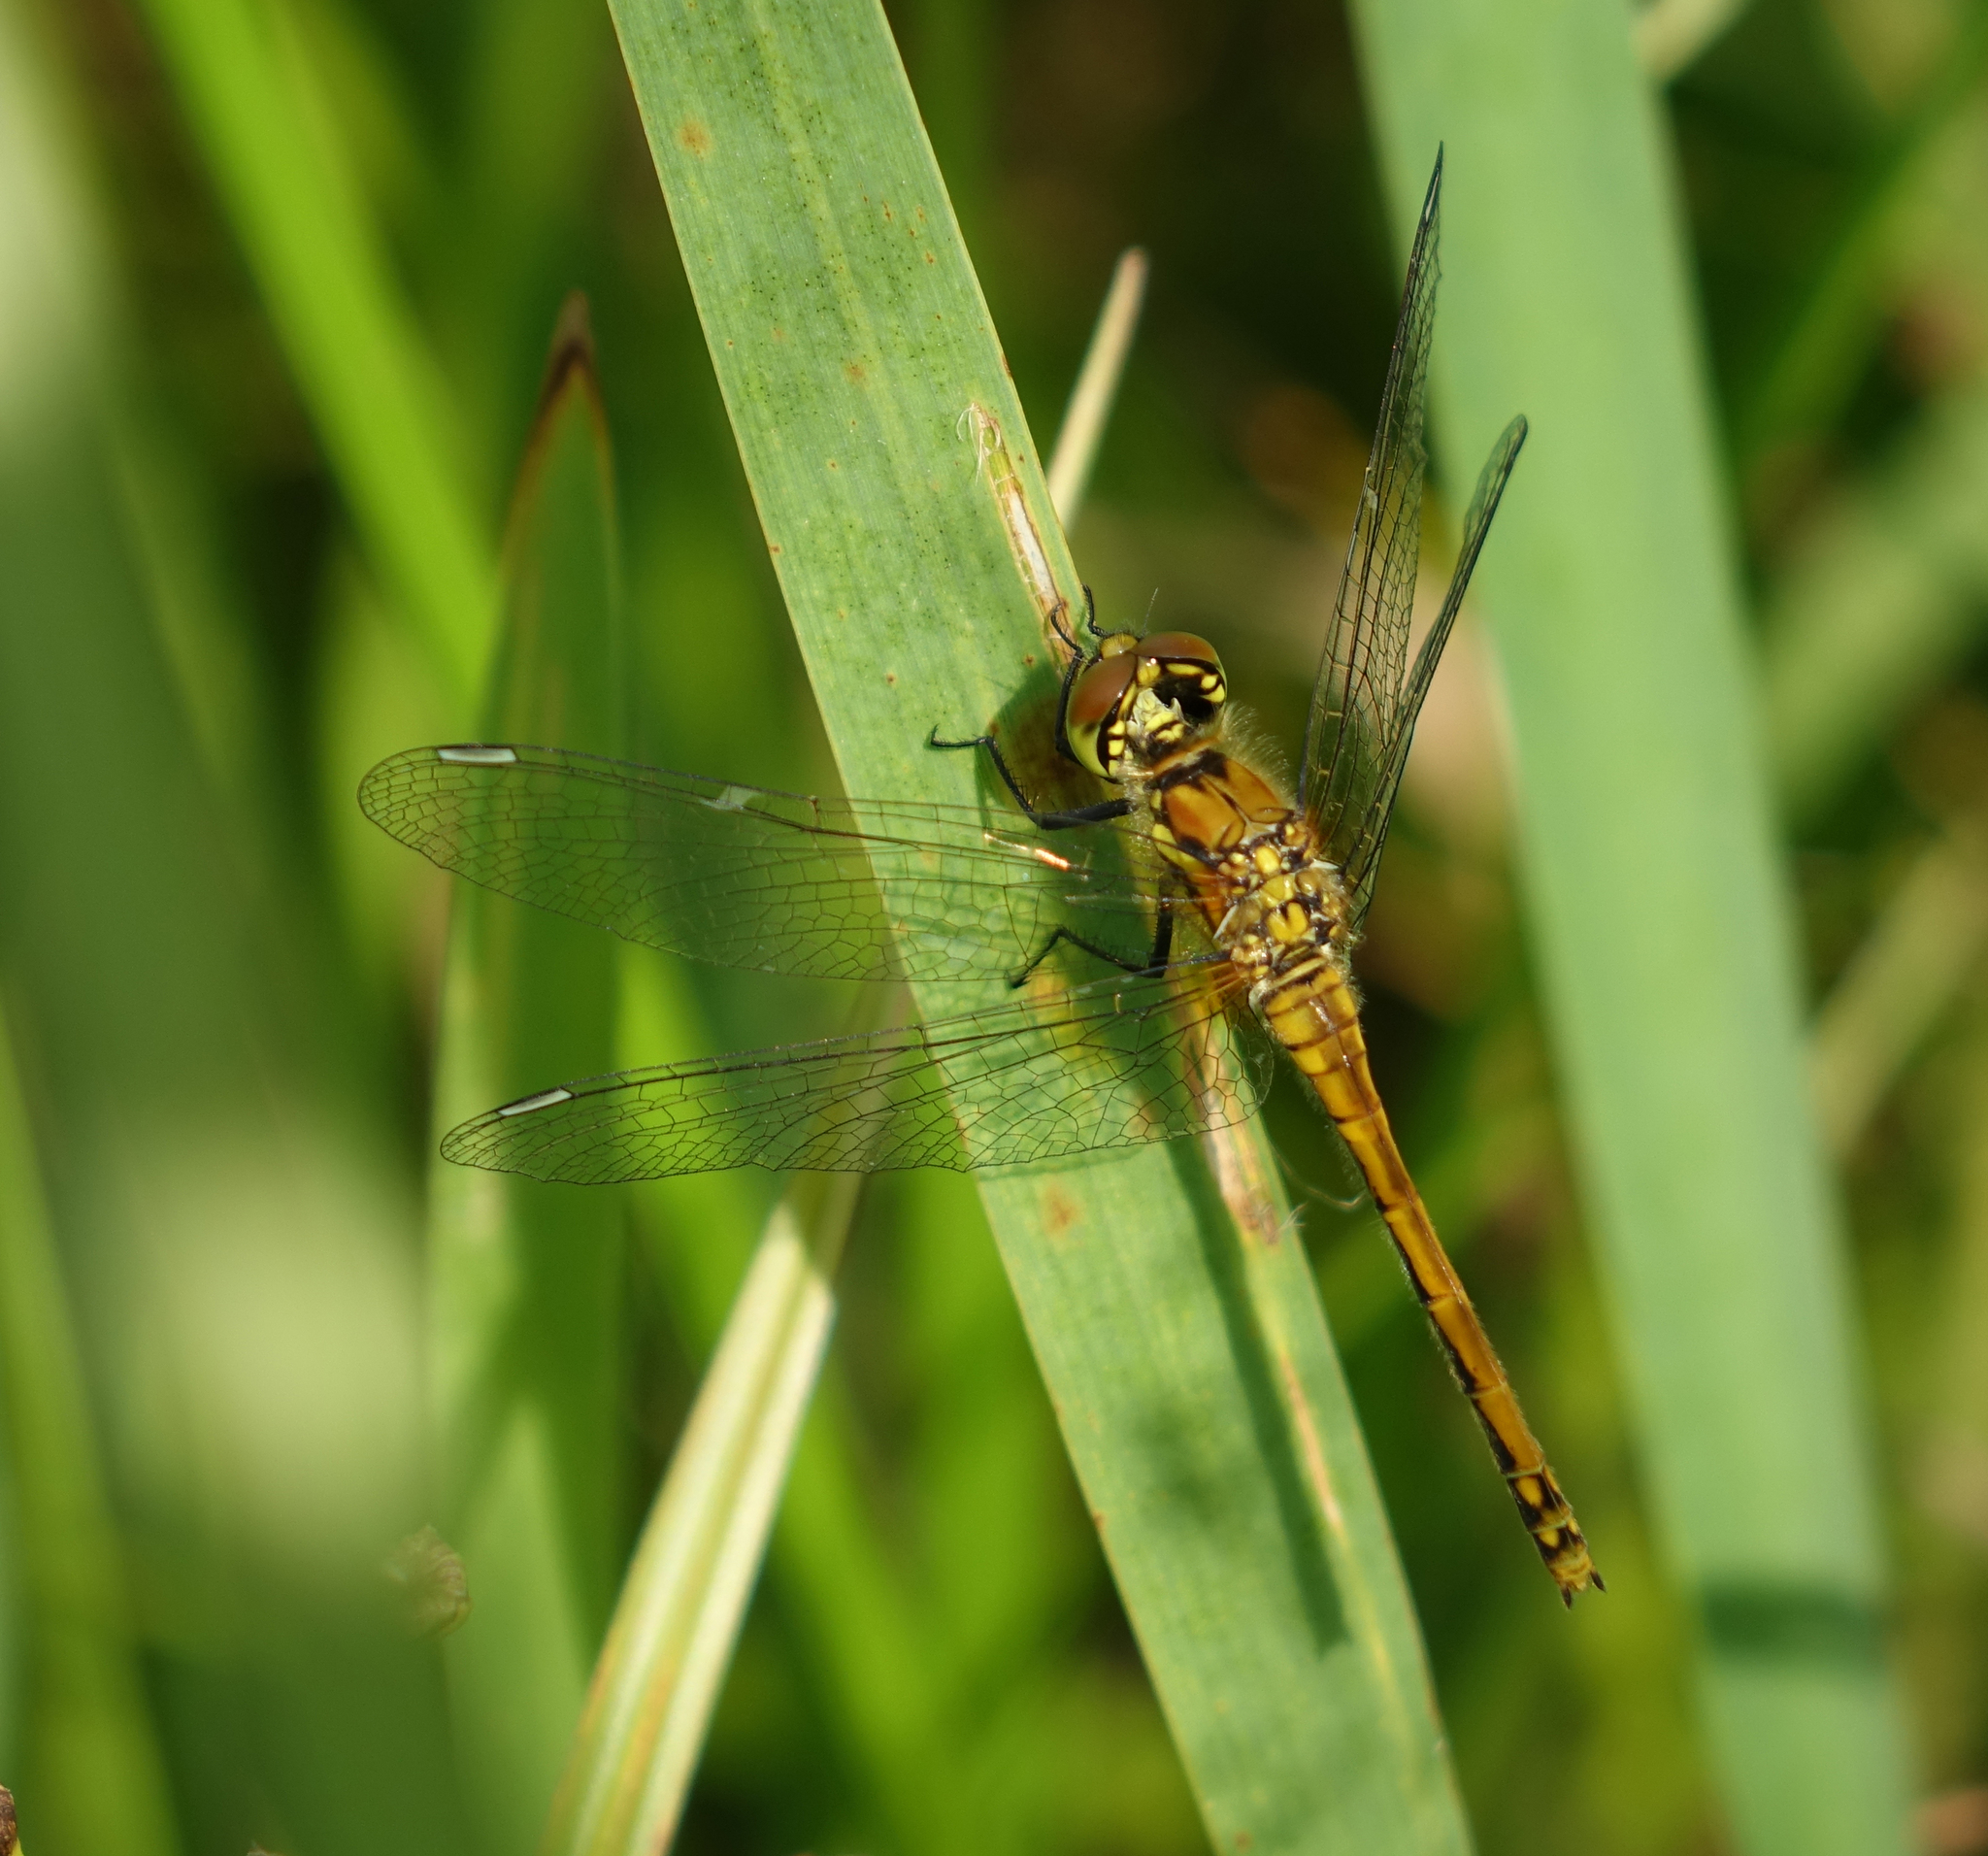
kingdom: Animalia
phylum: Arthropoda
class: Insecta
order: Odonata
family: Libellulidae
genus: Sympetrum
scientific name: Sympetrum danae
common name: Black darter
